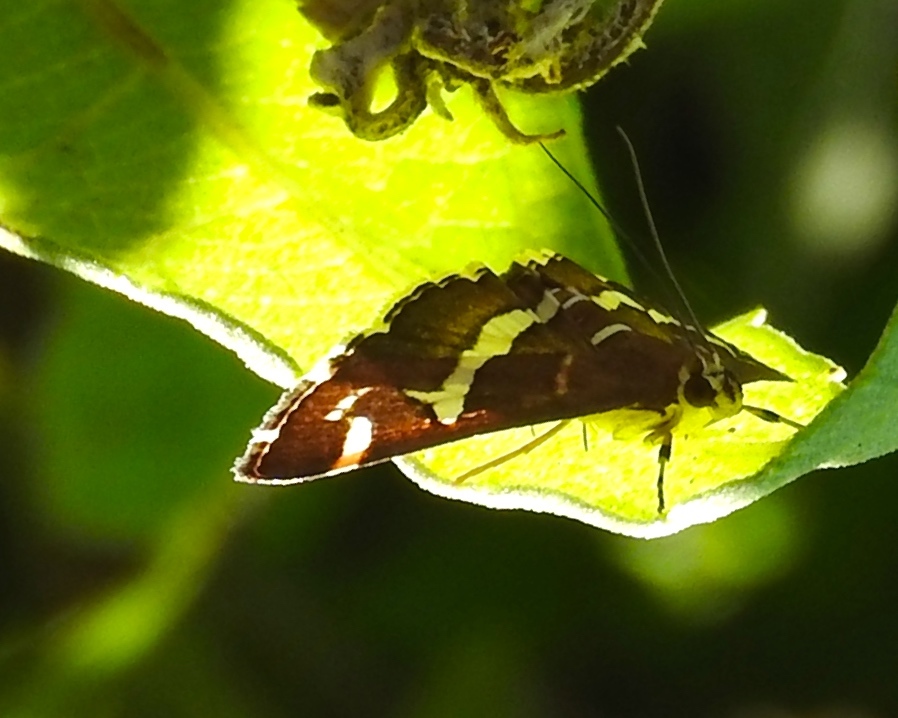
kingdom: Animalia
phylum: Arthropoda
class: Insecta
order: Lepidoptera
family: Crambidae
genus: Spoladea
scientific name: Spoladea recurvalis
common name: Beet webworm moth
